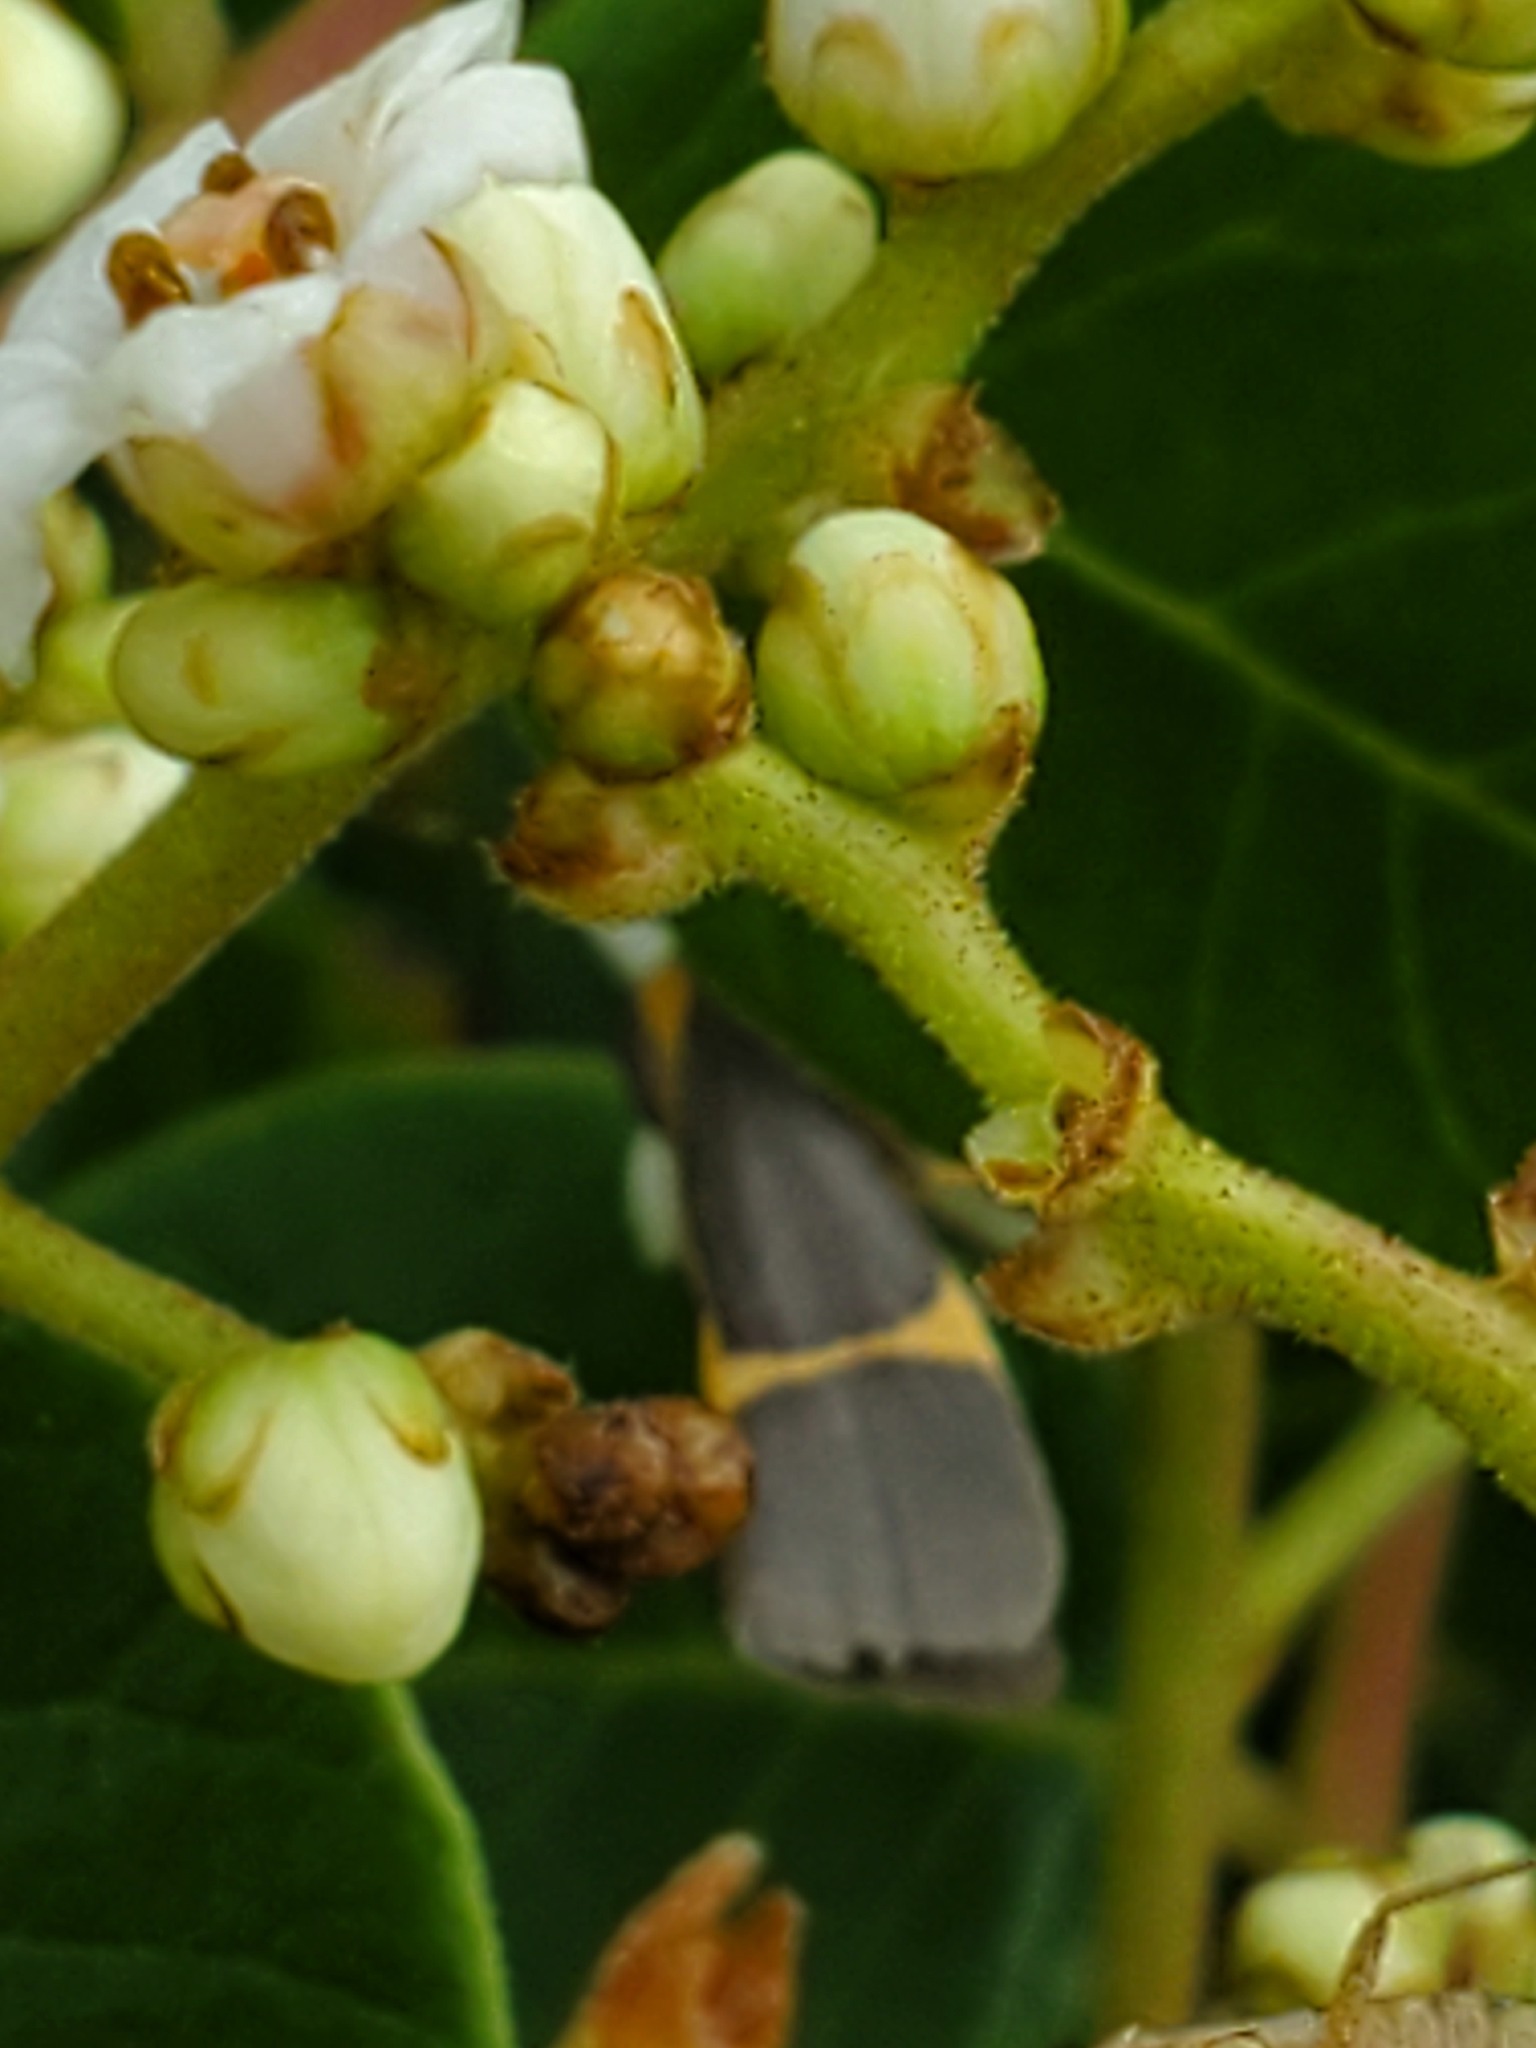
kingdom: Animalia
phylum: Arthropoda
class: Insecta
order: Lepidoptera
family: Erebidae
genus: Cisthene
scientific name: Cisthene tenuifascia
